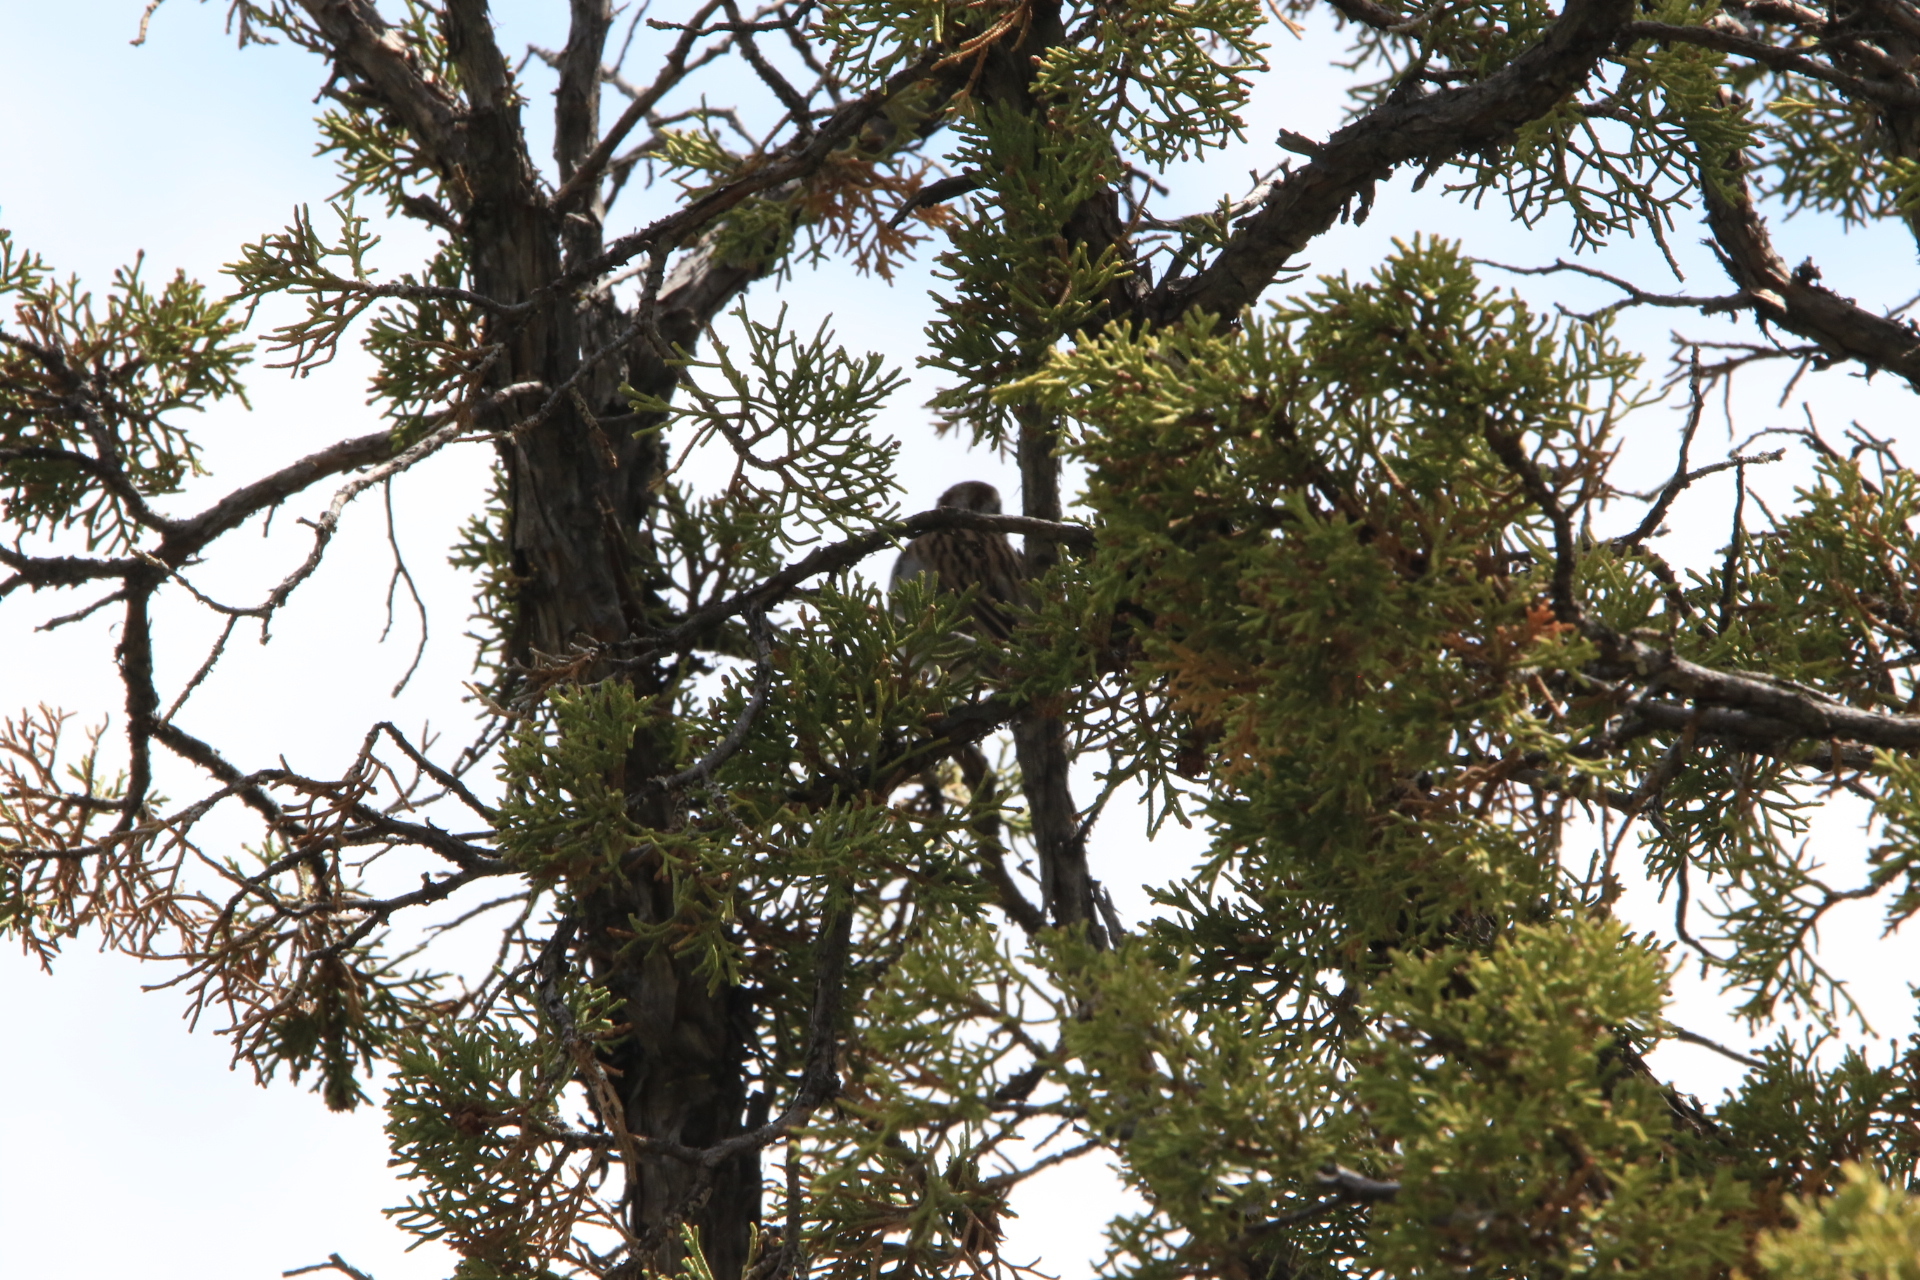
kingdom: Animalia
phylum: Chordata
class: Aves
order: Passeriformes
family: Passerellidae
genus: Spizella
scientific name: Spizella passerina
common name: Chipping sparrow
